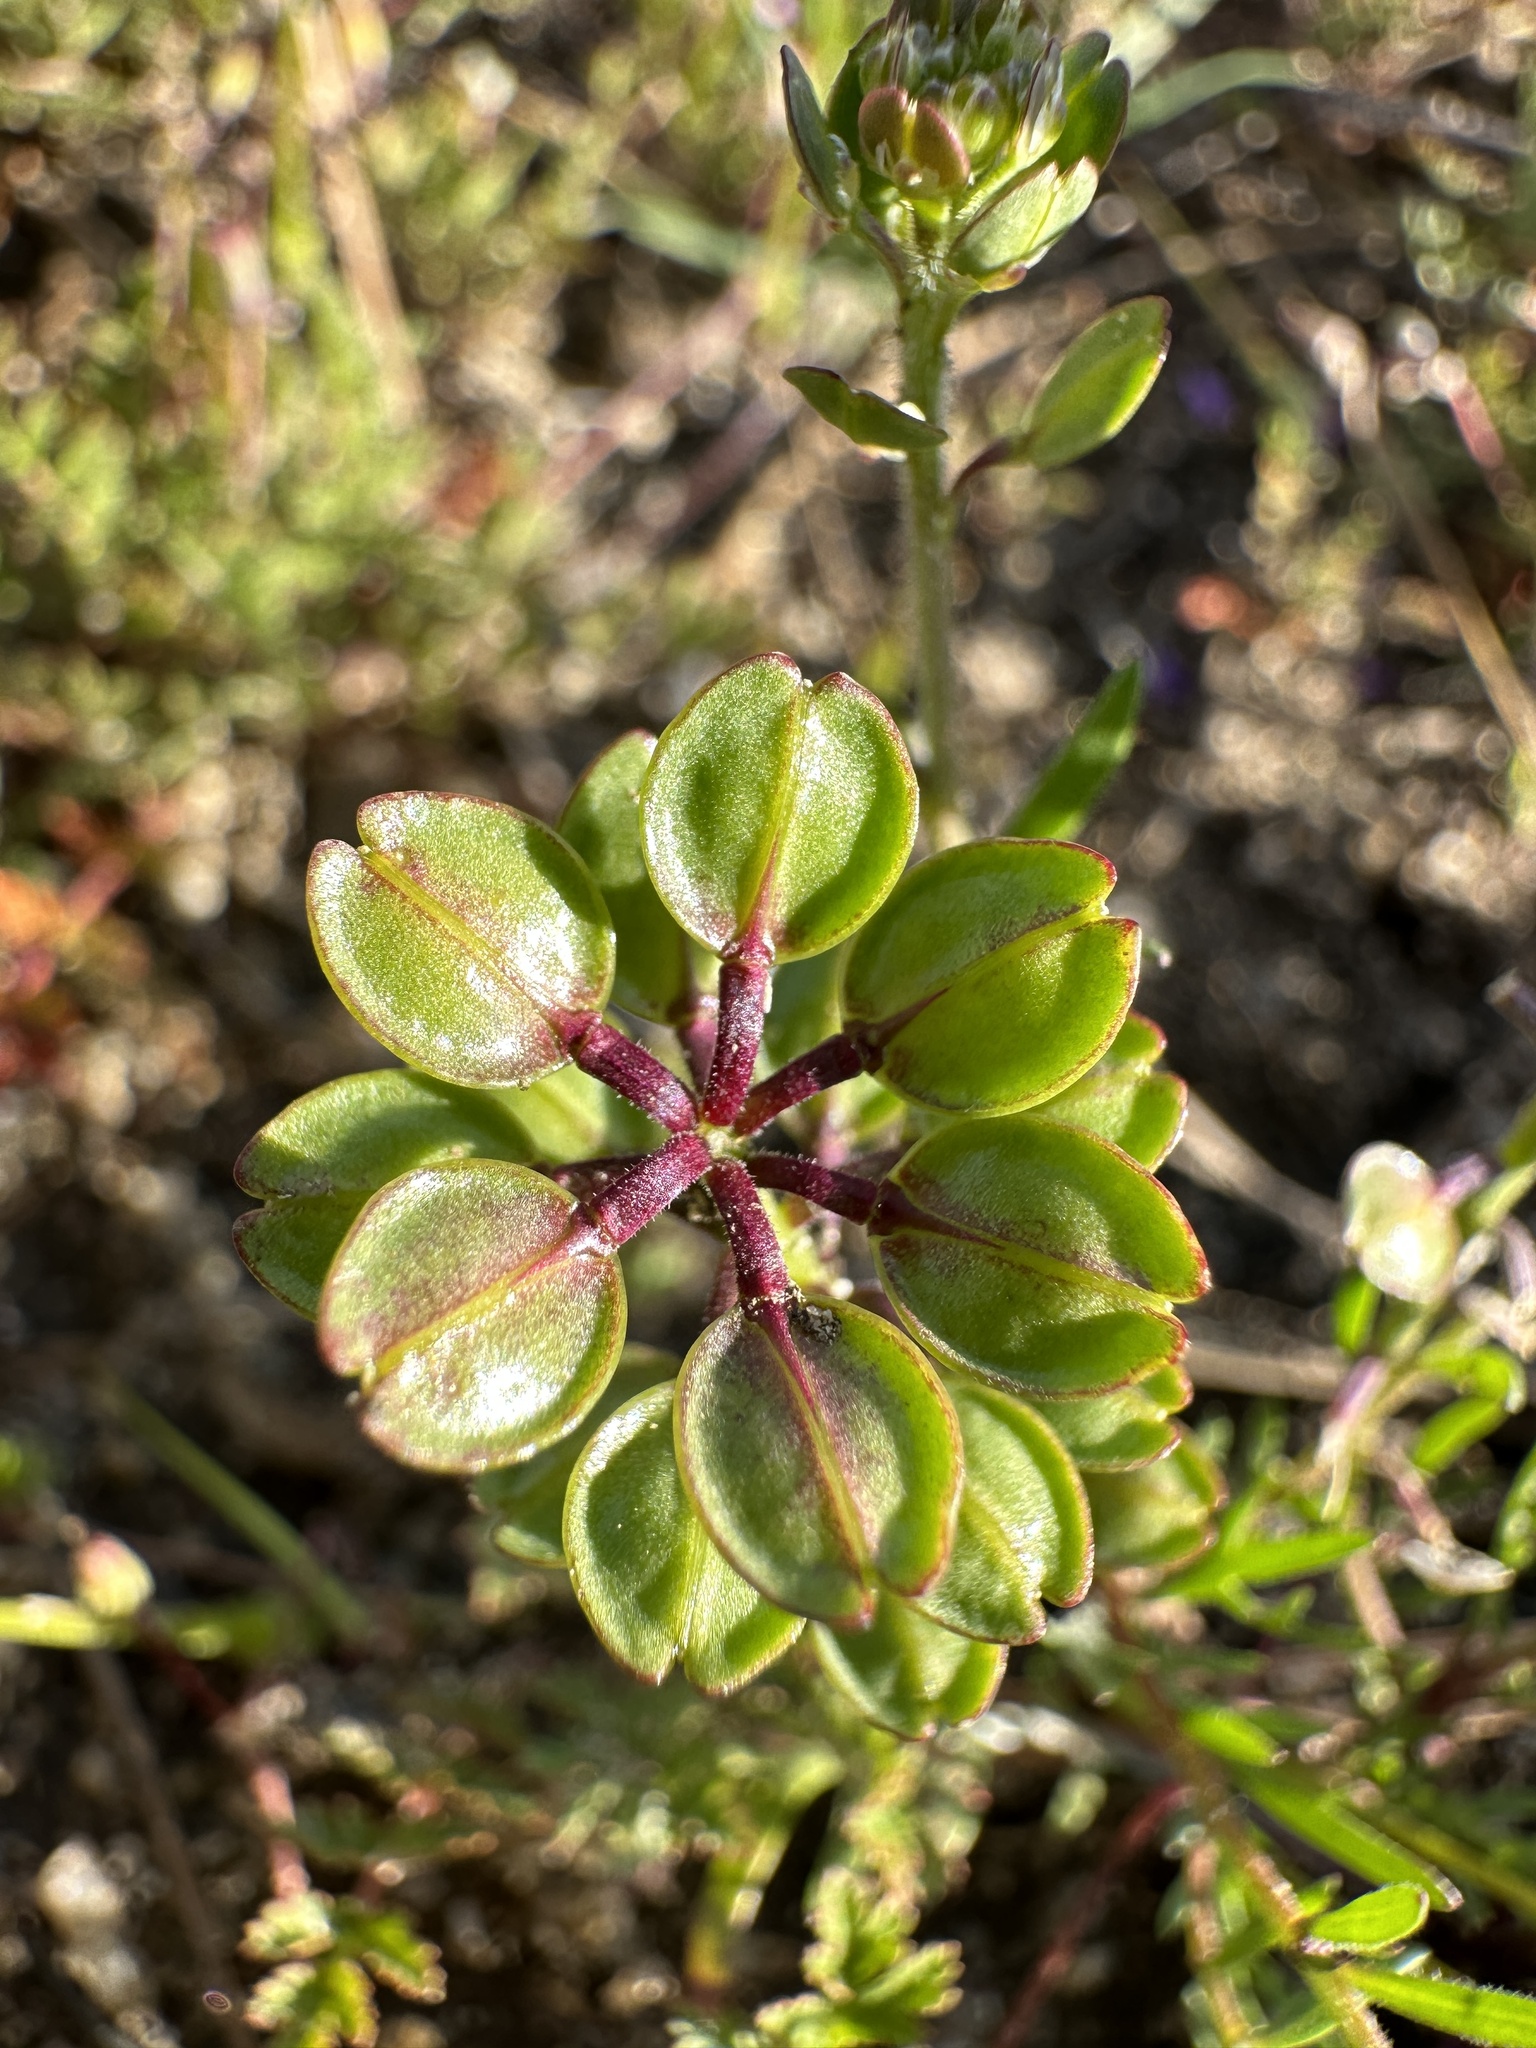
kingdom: Plantae
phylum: Tracheophyta
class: Magnoliopsida
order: Brassicales
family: Brassicaceae
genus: Lepidium
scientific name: Lepidium nitidum
